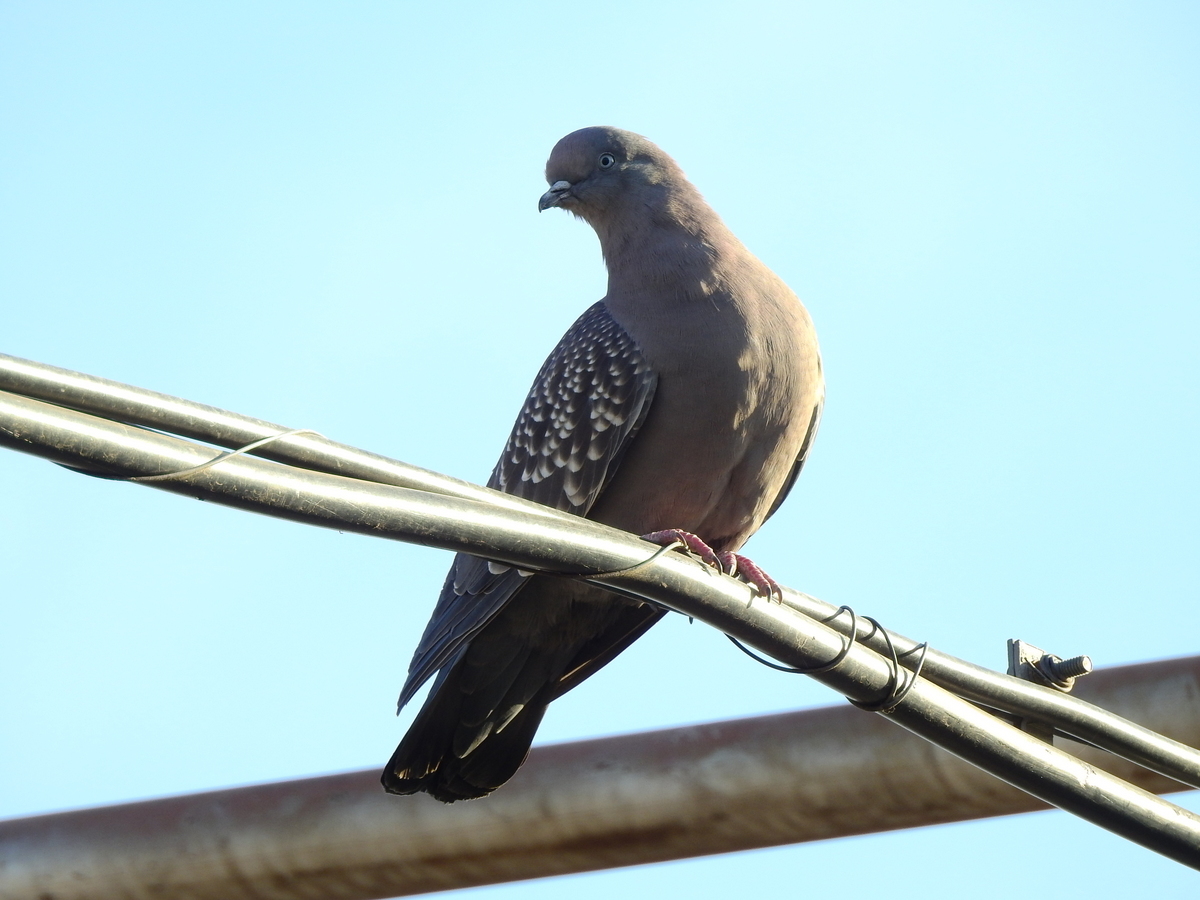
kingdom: Animalia
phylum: Chordata
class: Aves
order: Columbiformes
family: Columbidae
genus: Patagioenas
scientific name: Patagioenas maculosa
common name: Spot-winged pigeon
